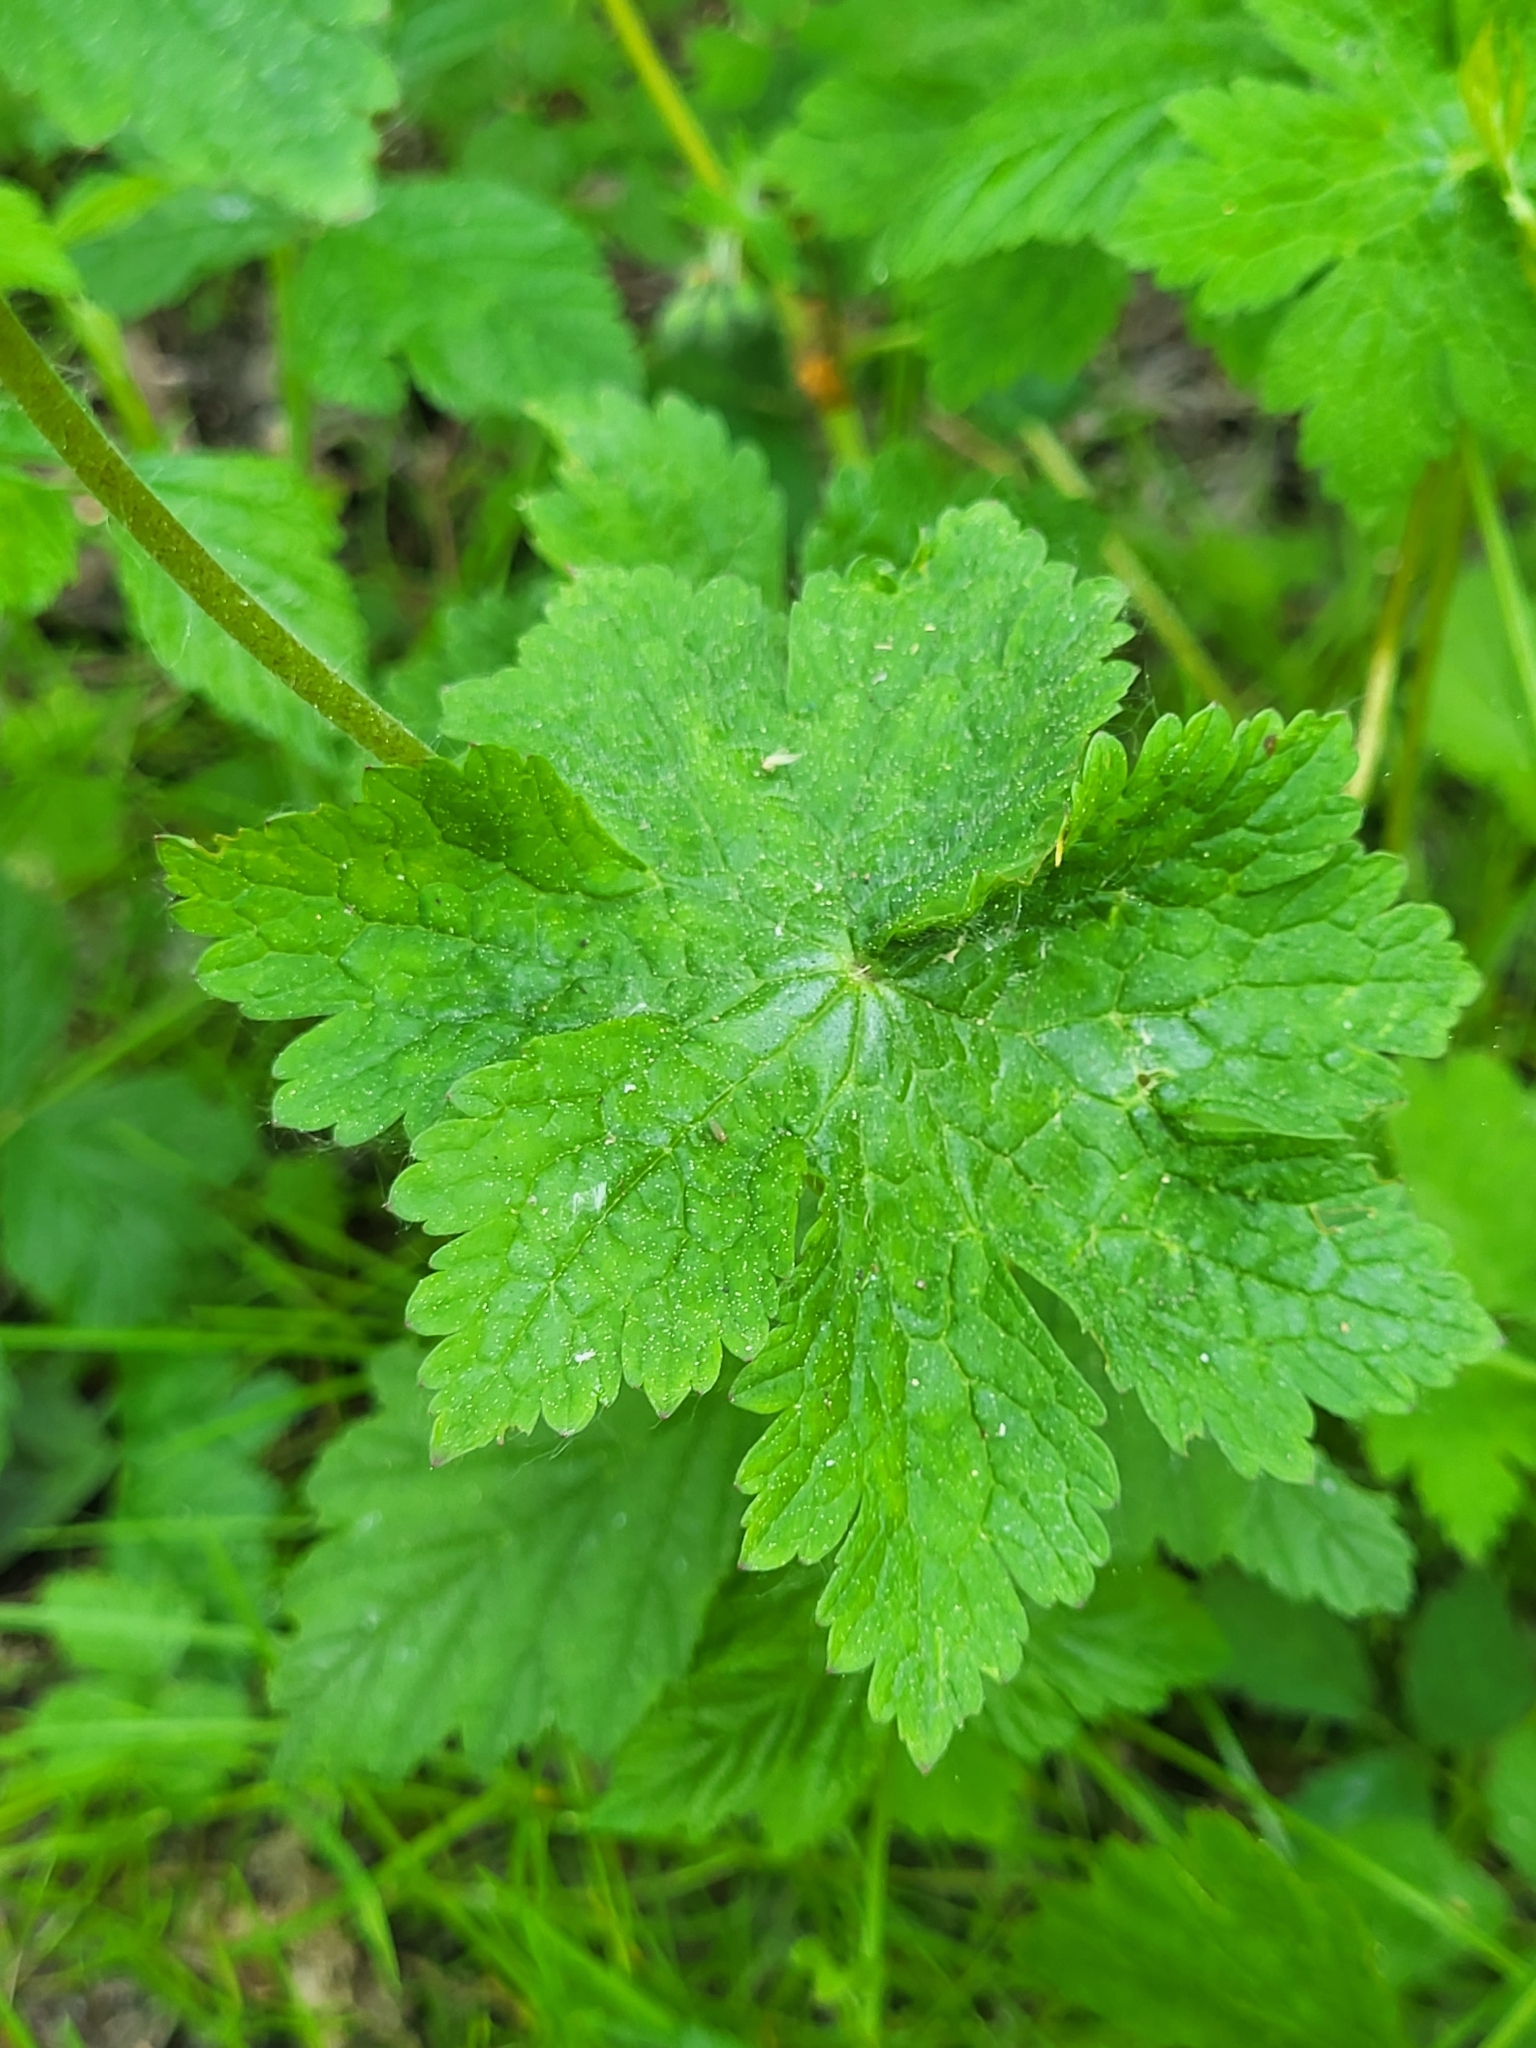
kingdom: Plantae
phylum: Tracheophyta
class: Magnoliopsida
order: Geraniales
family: Geraniaceae
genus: Geranium
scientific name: Geranium phaeum
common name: Dusky crane's-bill
